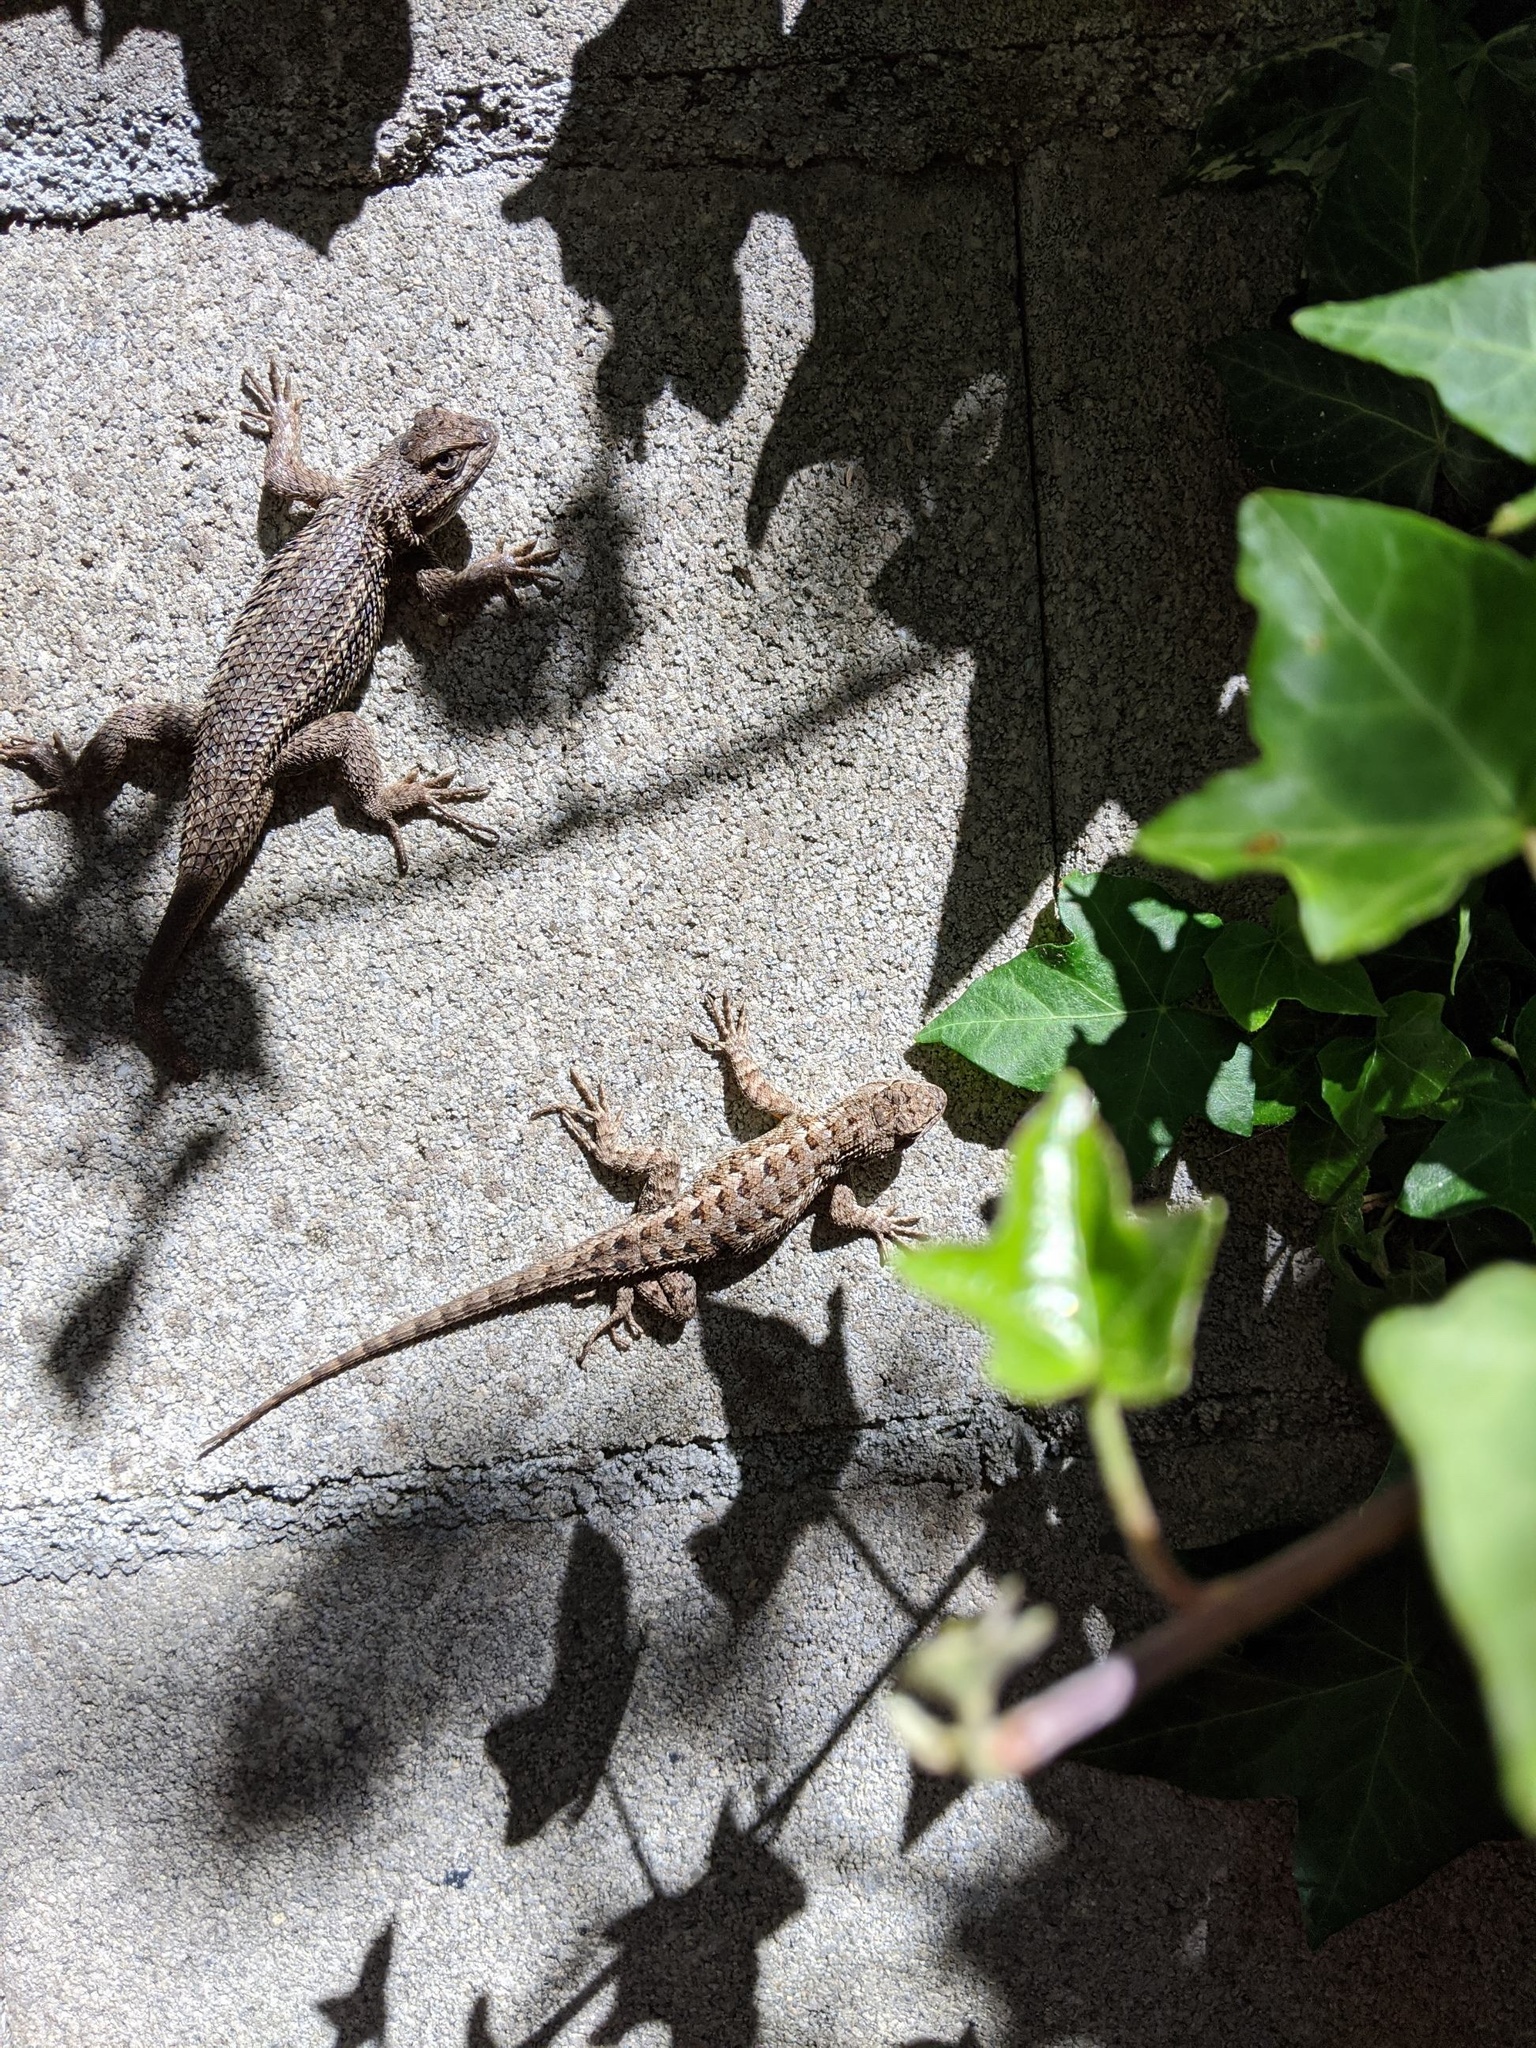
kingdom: Animalia
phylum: Chordata
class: Squamata
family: Phrynosomatidae
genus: Sceloporus
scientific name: Sceloporus occidentalis
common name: Western fence lizard
